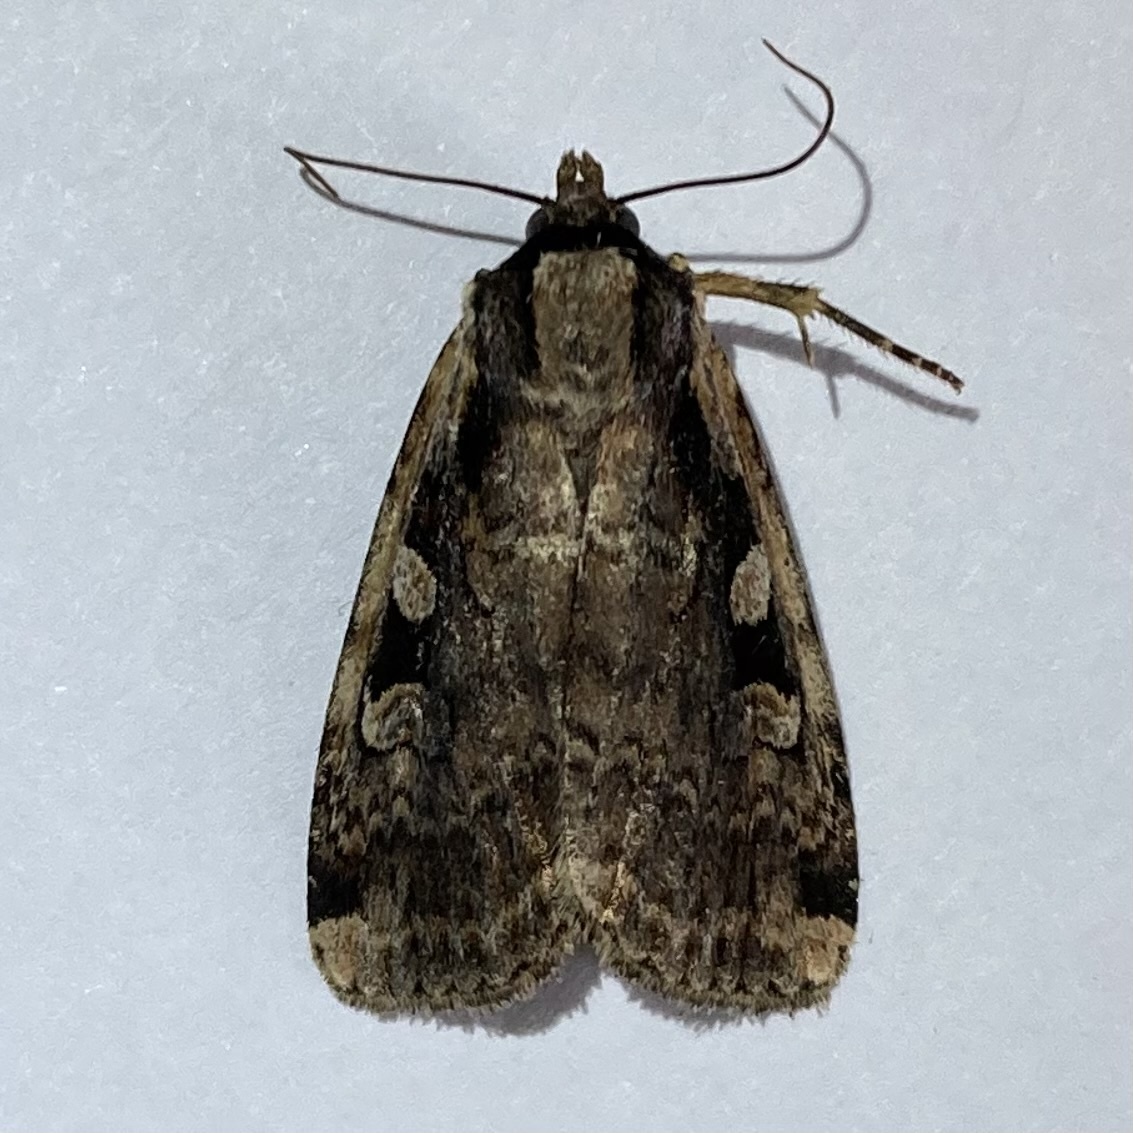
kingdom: Animalia
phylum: Arthropoda
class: Insecta
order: Lepidoptera
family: Noctuidae
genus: Eueretagrotis
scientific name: Eueretagrotis sigmoides
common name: Sigmoid dart
